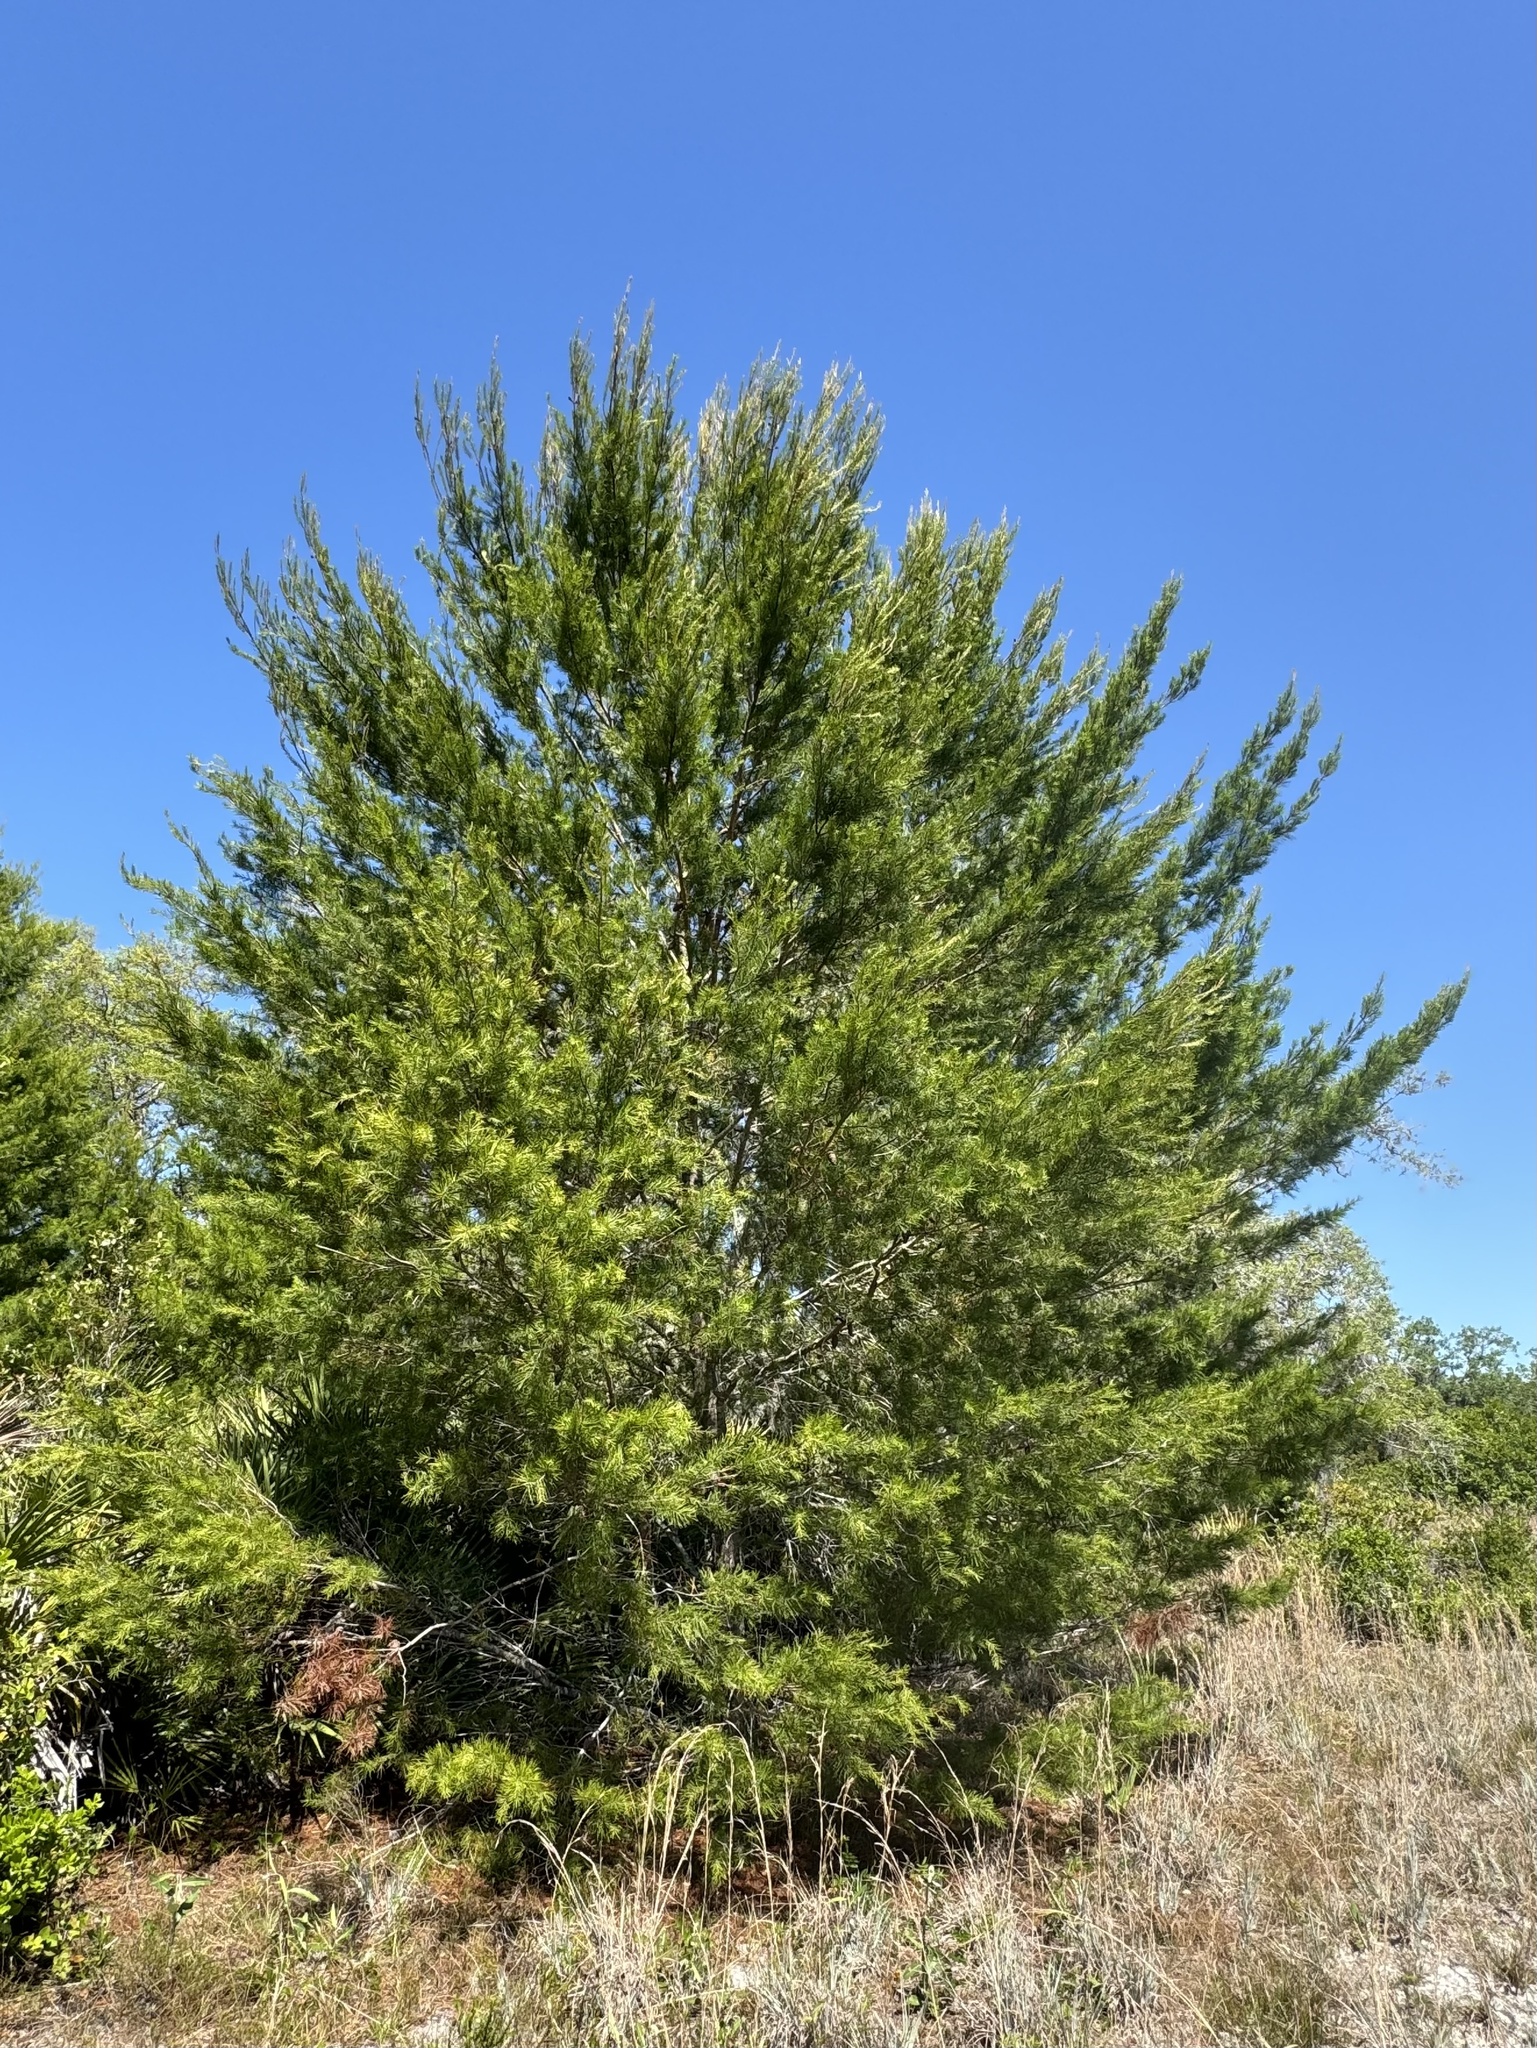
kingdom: Plantae
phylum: Tracheophyta
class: Pinopsida
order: Pinales
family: Pinaceae
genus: Pinus
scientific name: Pinus clausa
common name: Sand pine
